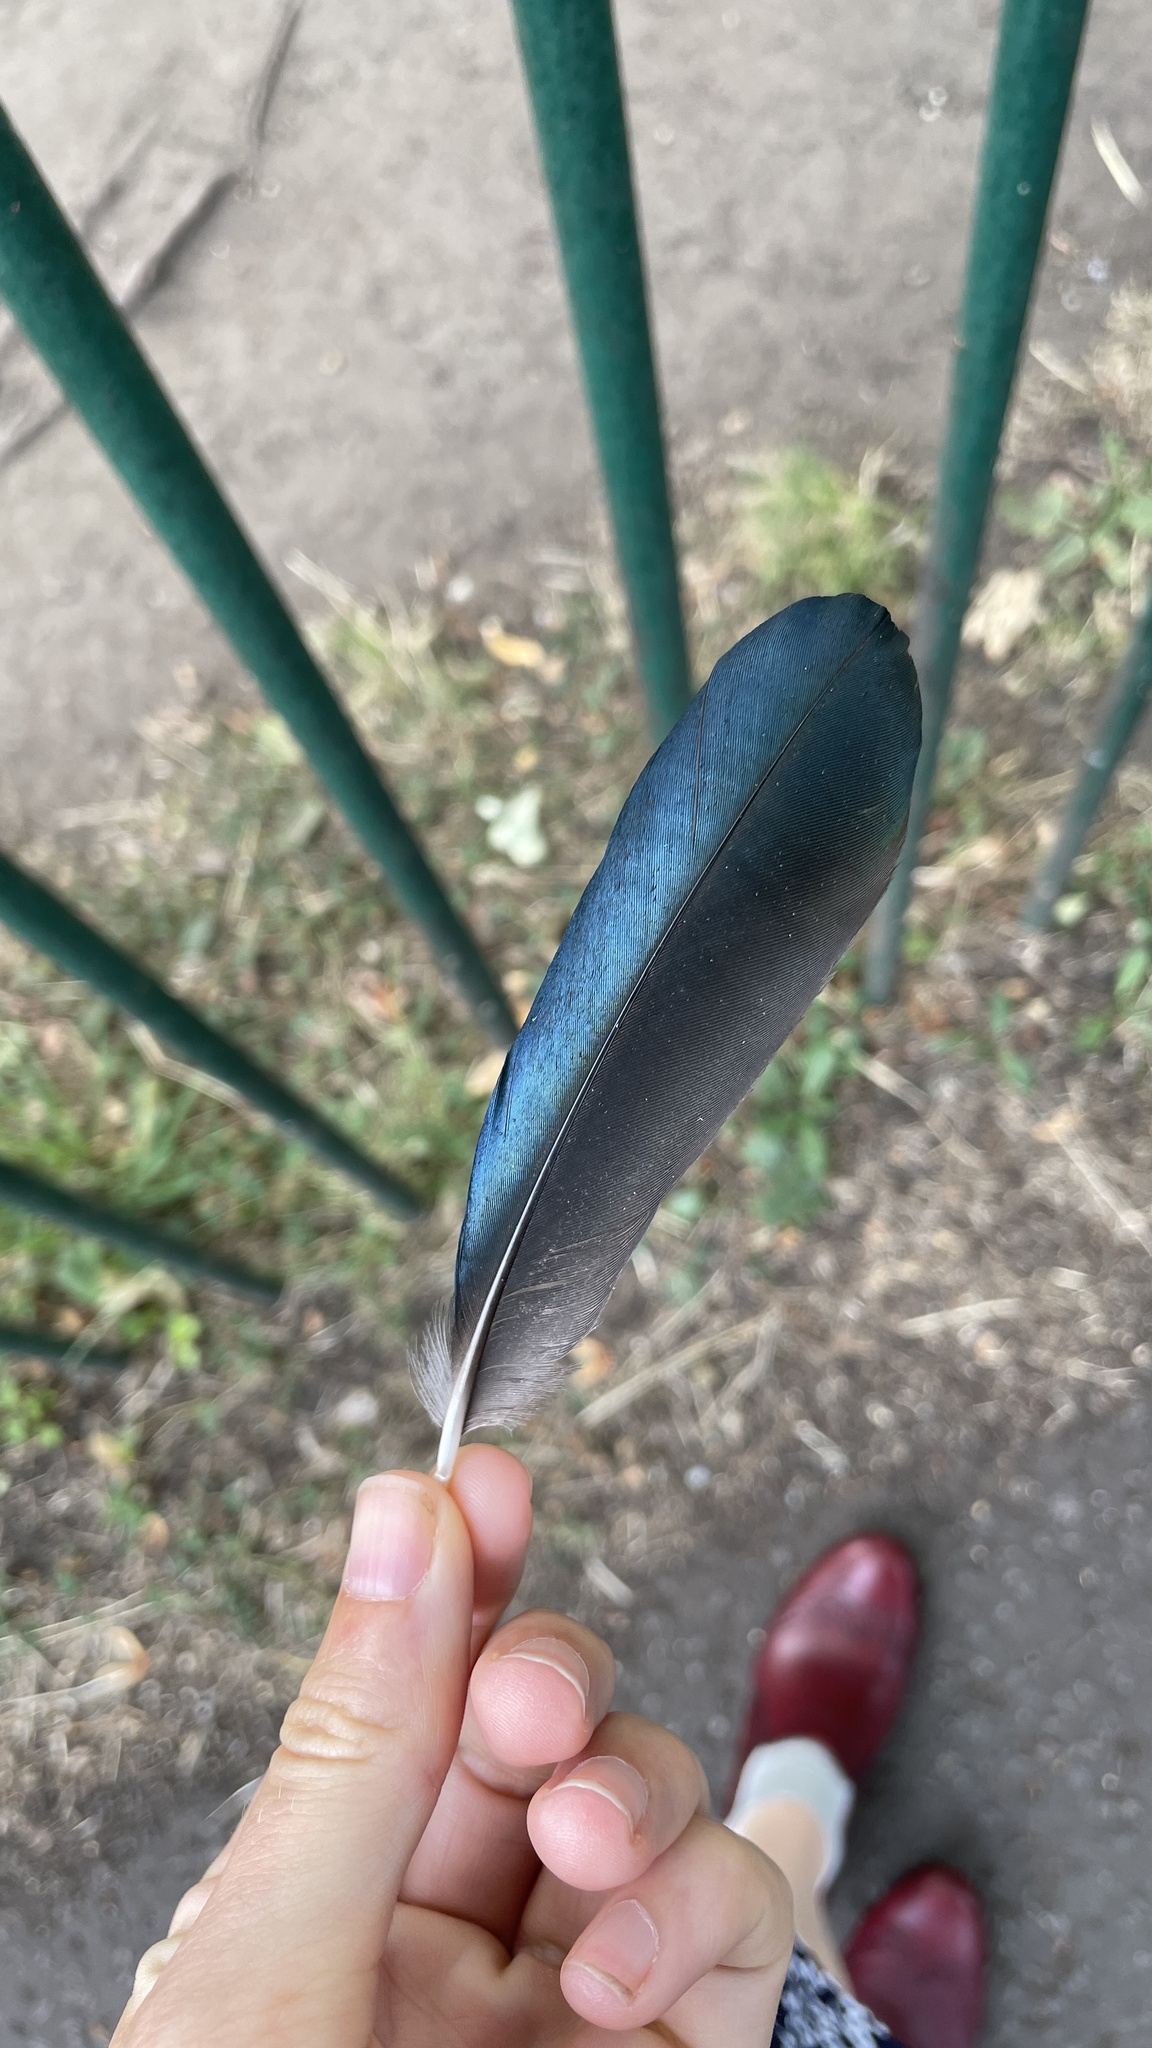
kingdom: Animalia
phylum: Chordata
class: Aves
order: Passeriformes
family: Corvidae
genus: Pica
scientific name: Pica pica
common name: Eurasian magpie
